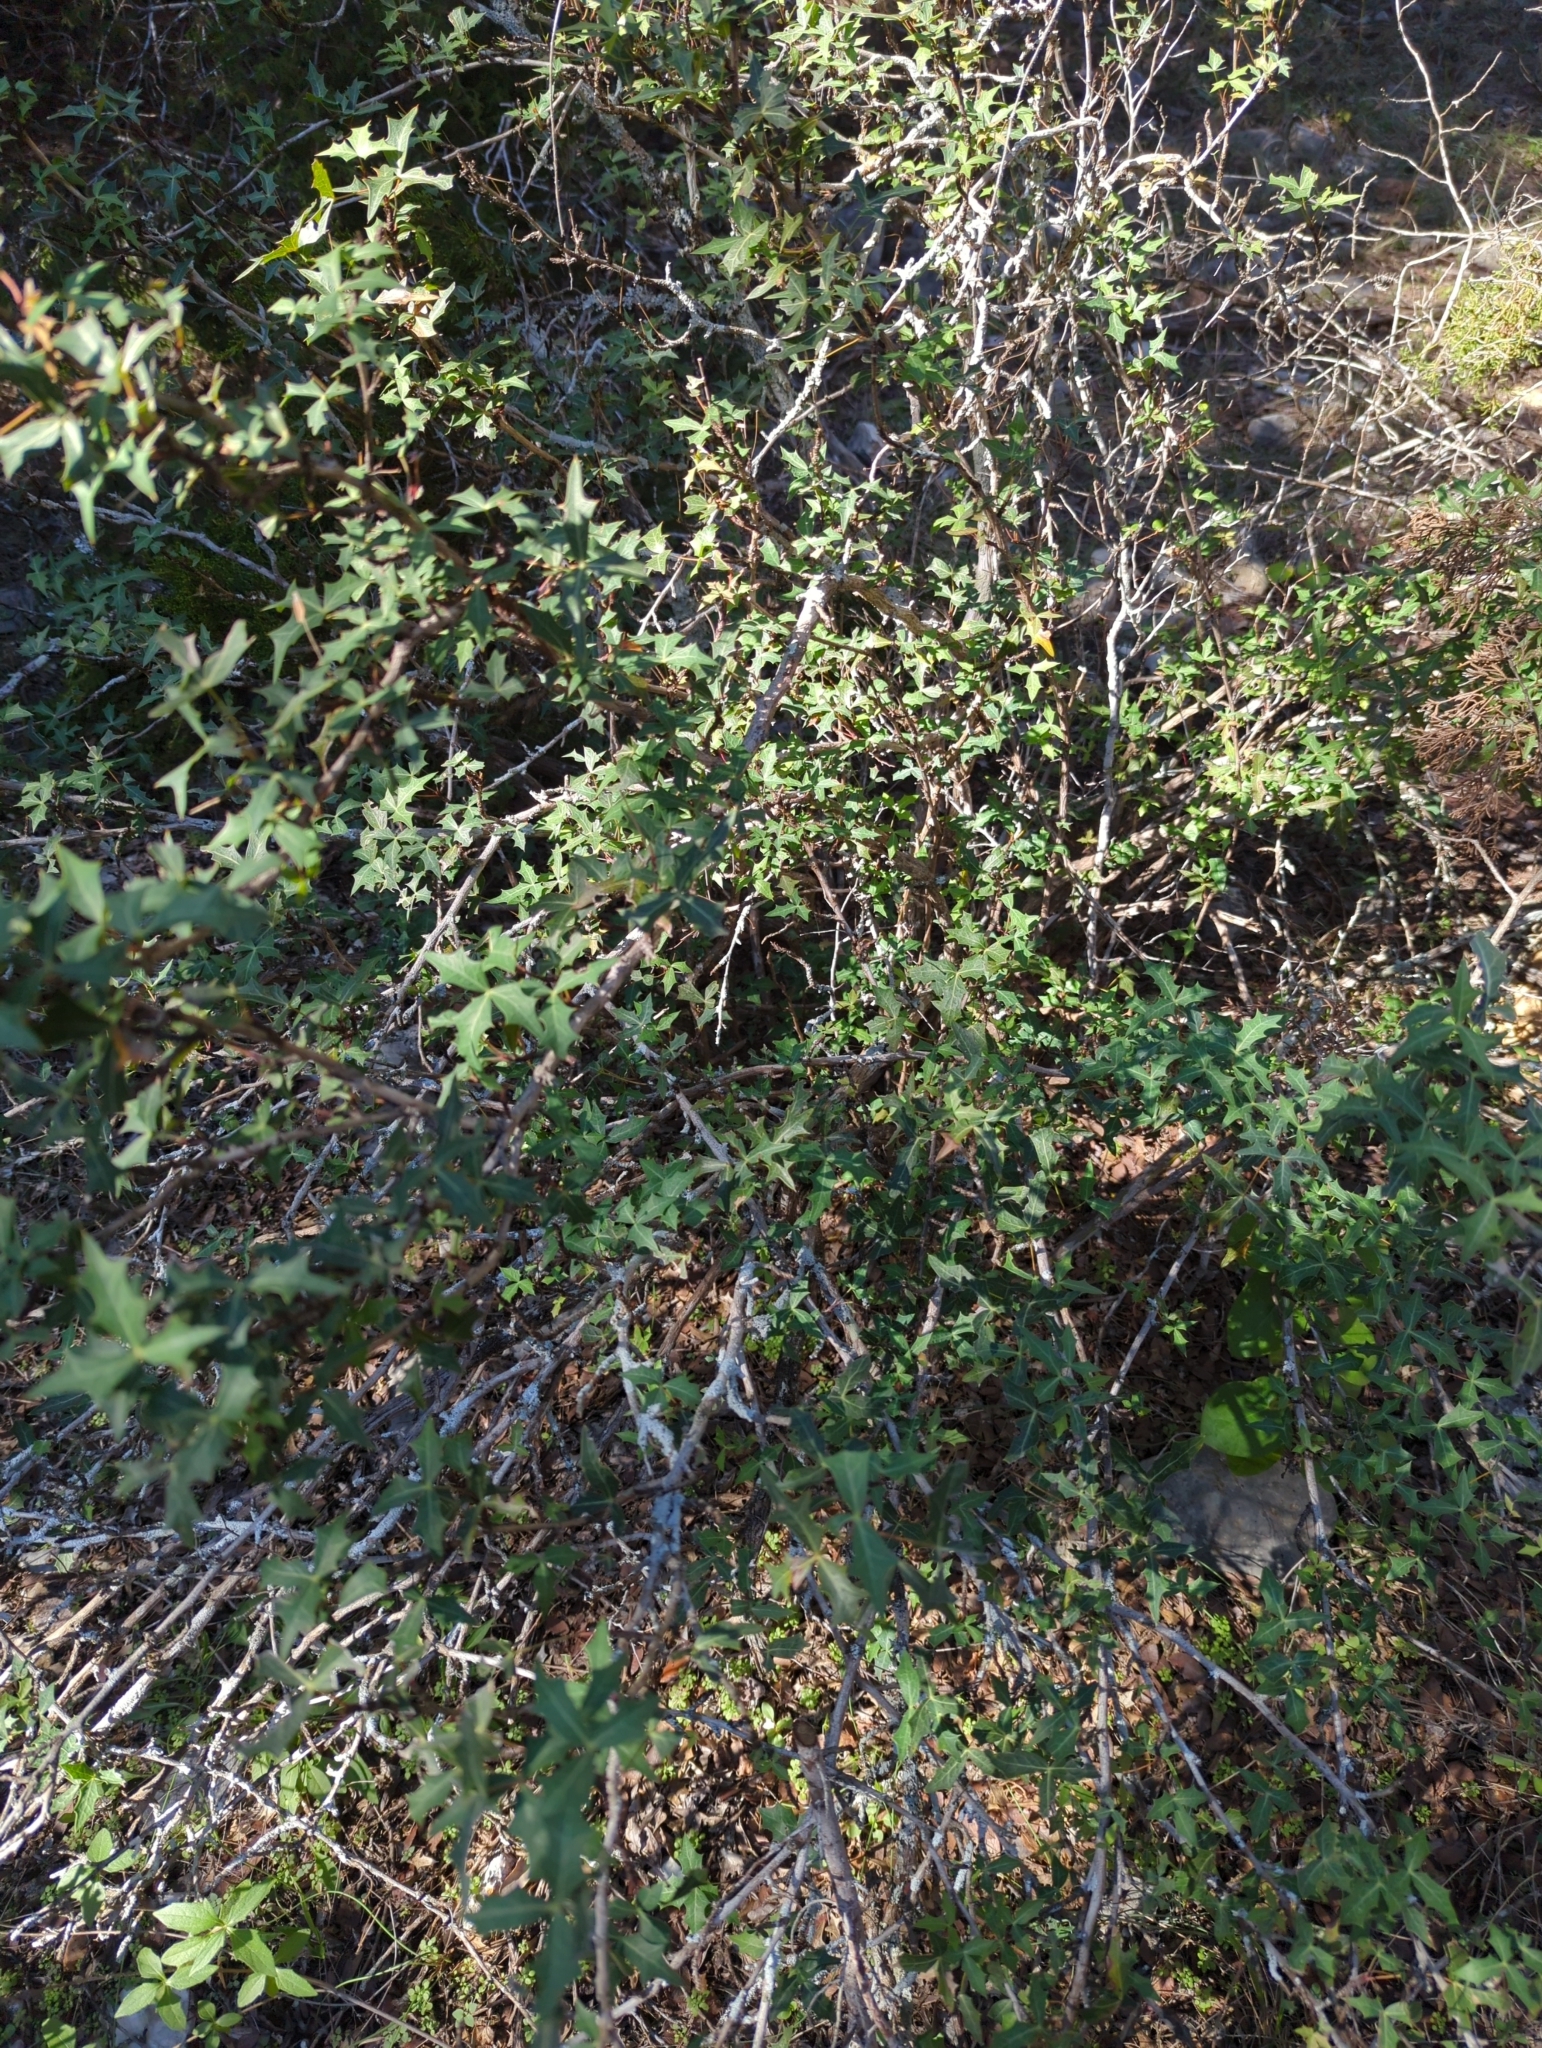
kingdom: Plantae
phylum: Tracheophyta
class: Magnoliopsida
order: Ranunculales
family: Berberidaceae
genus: Alloberberis
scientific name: Alloberberis trifoliolata
